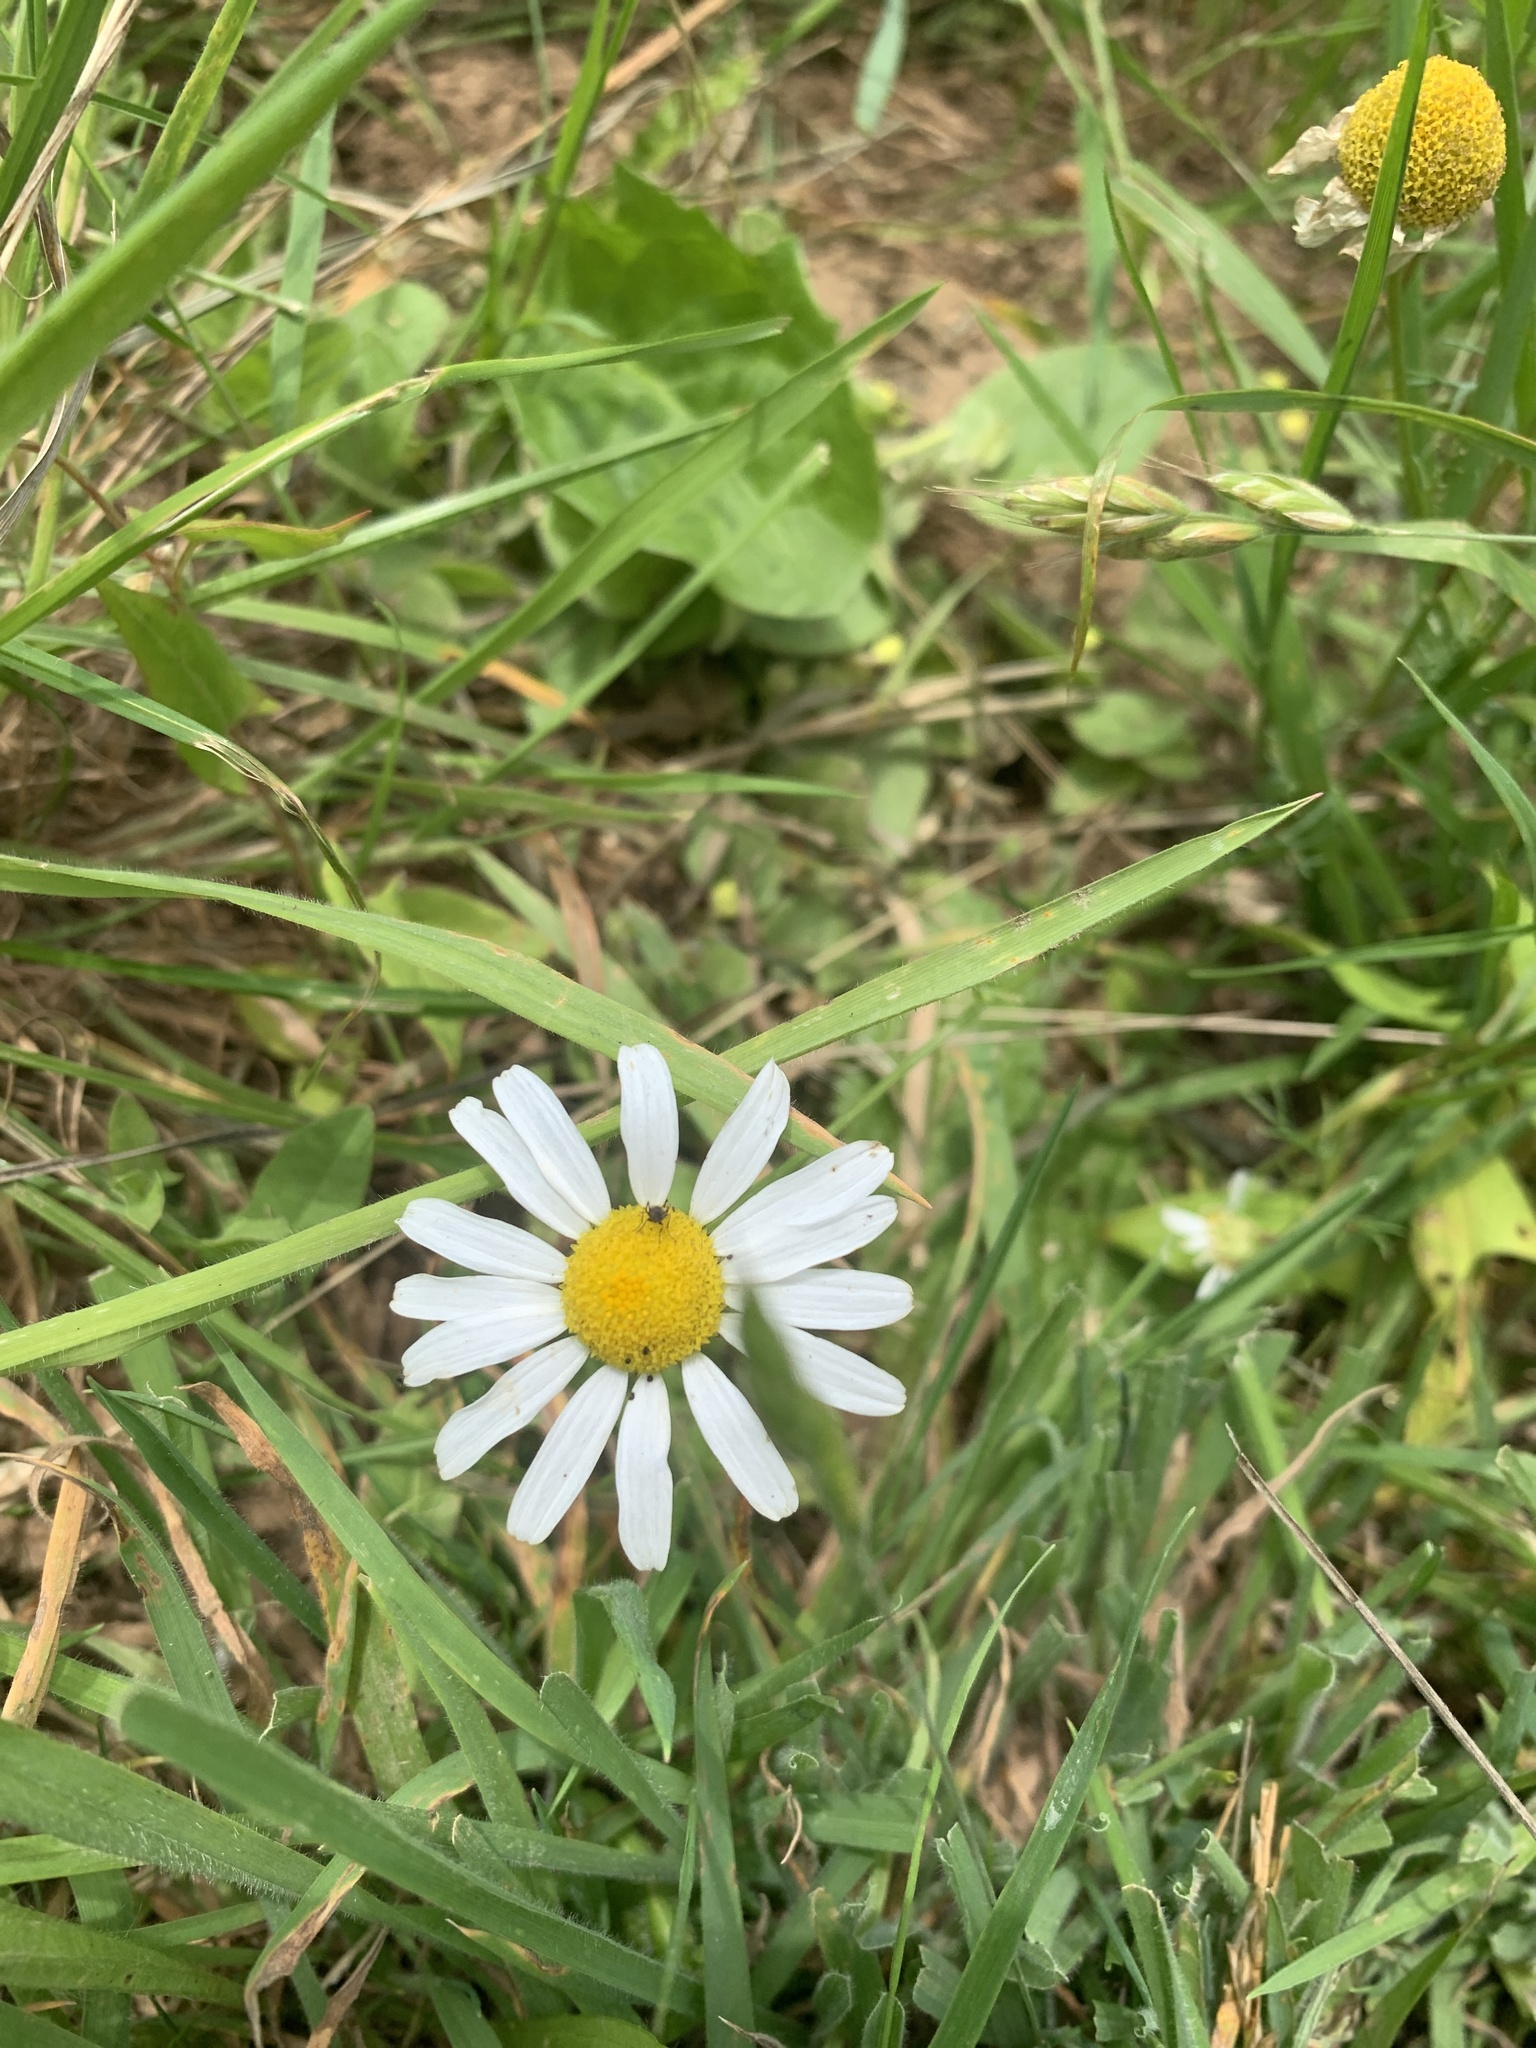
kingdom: Plantae
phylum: Tracheophyta
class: Magnoliopsida
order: Asterales
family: Asteraceae
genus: Leucanthemum
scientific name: Leucanthemum vulgare
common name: Oxeye daisy
